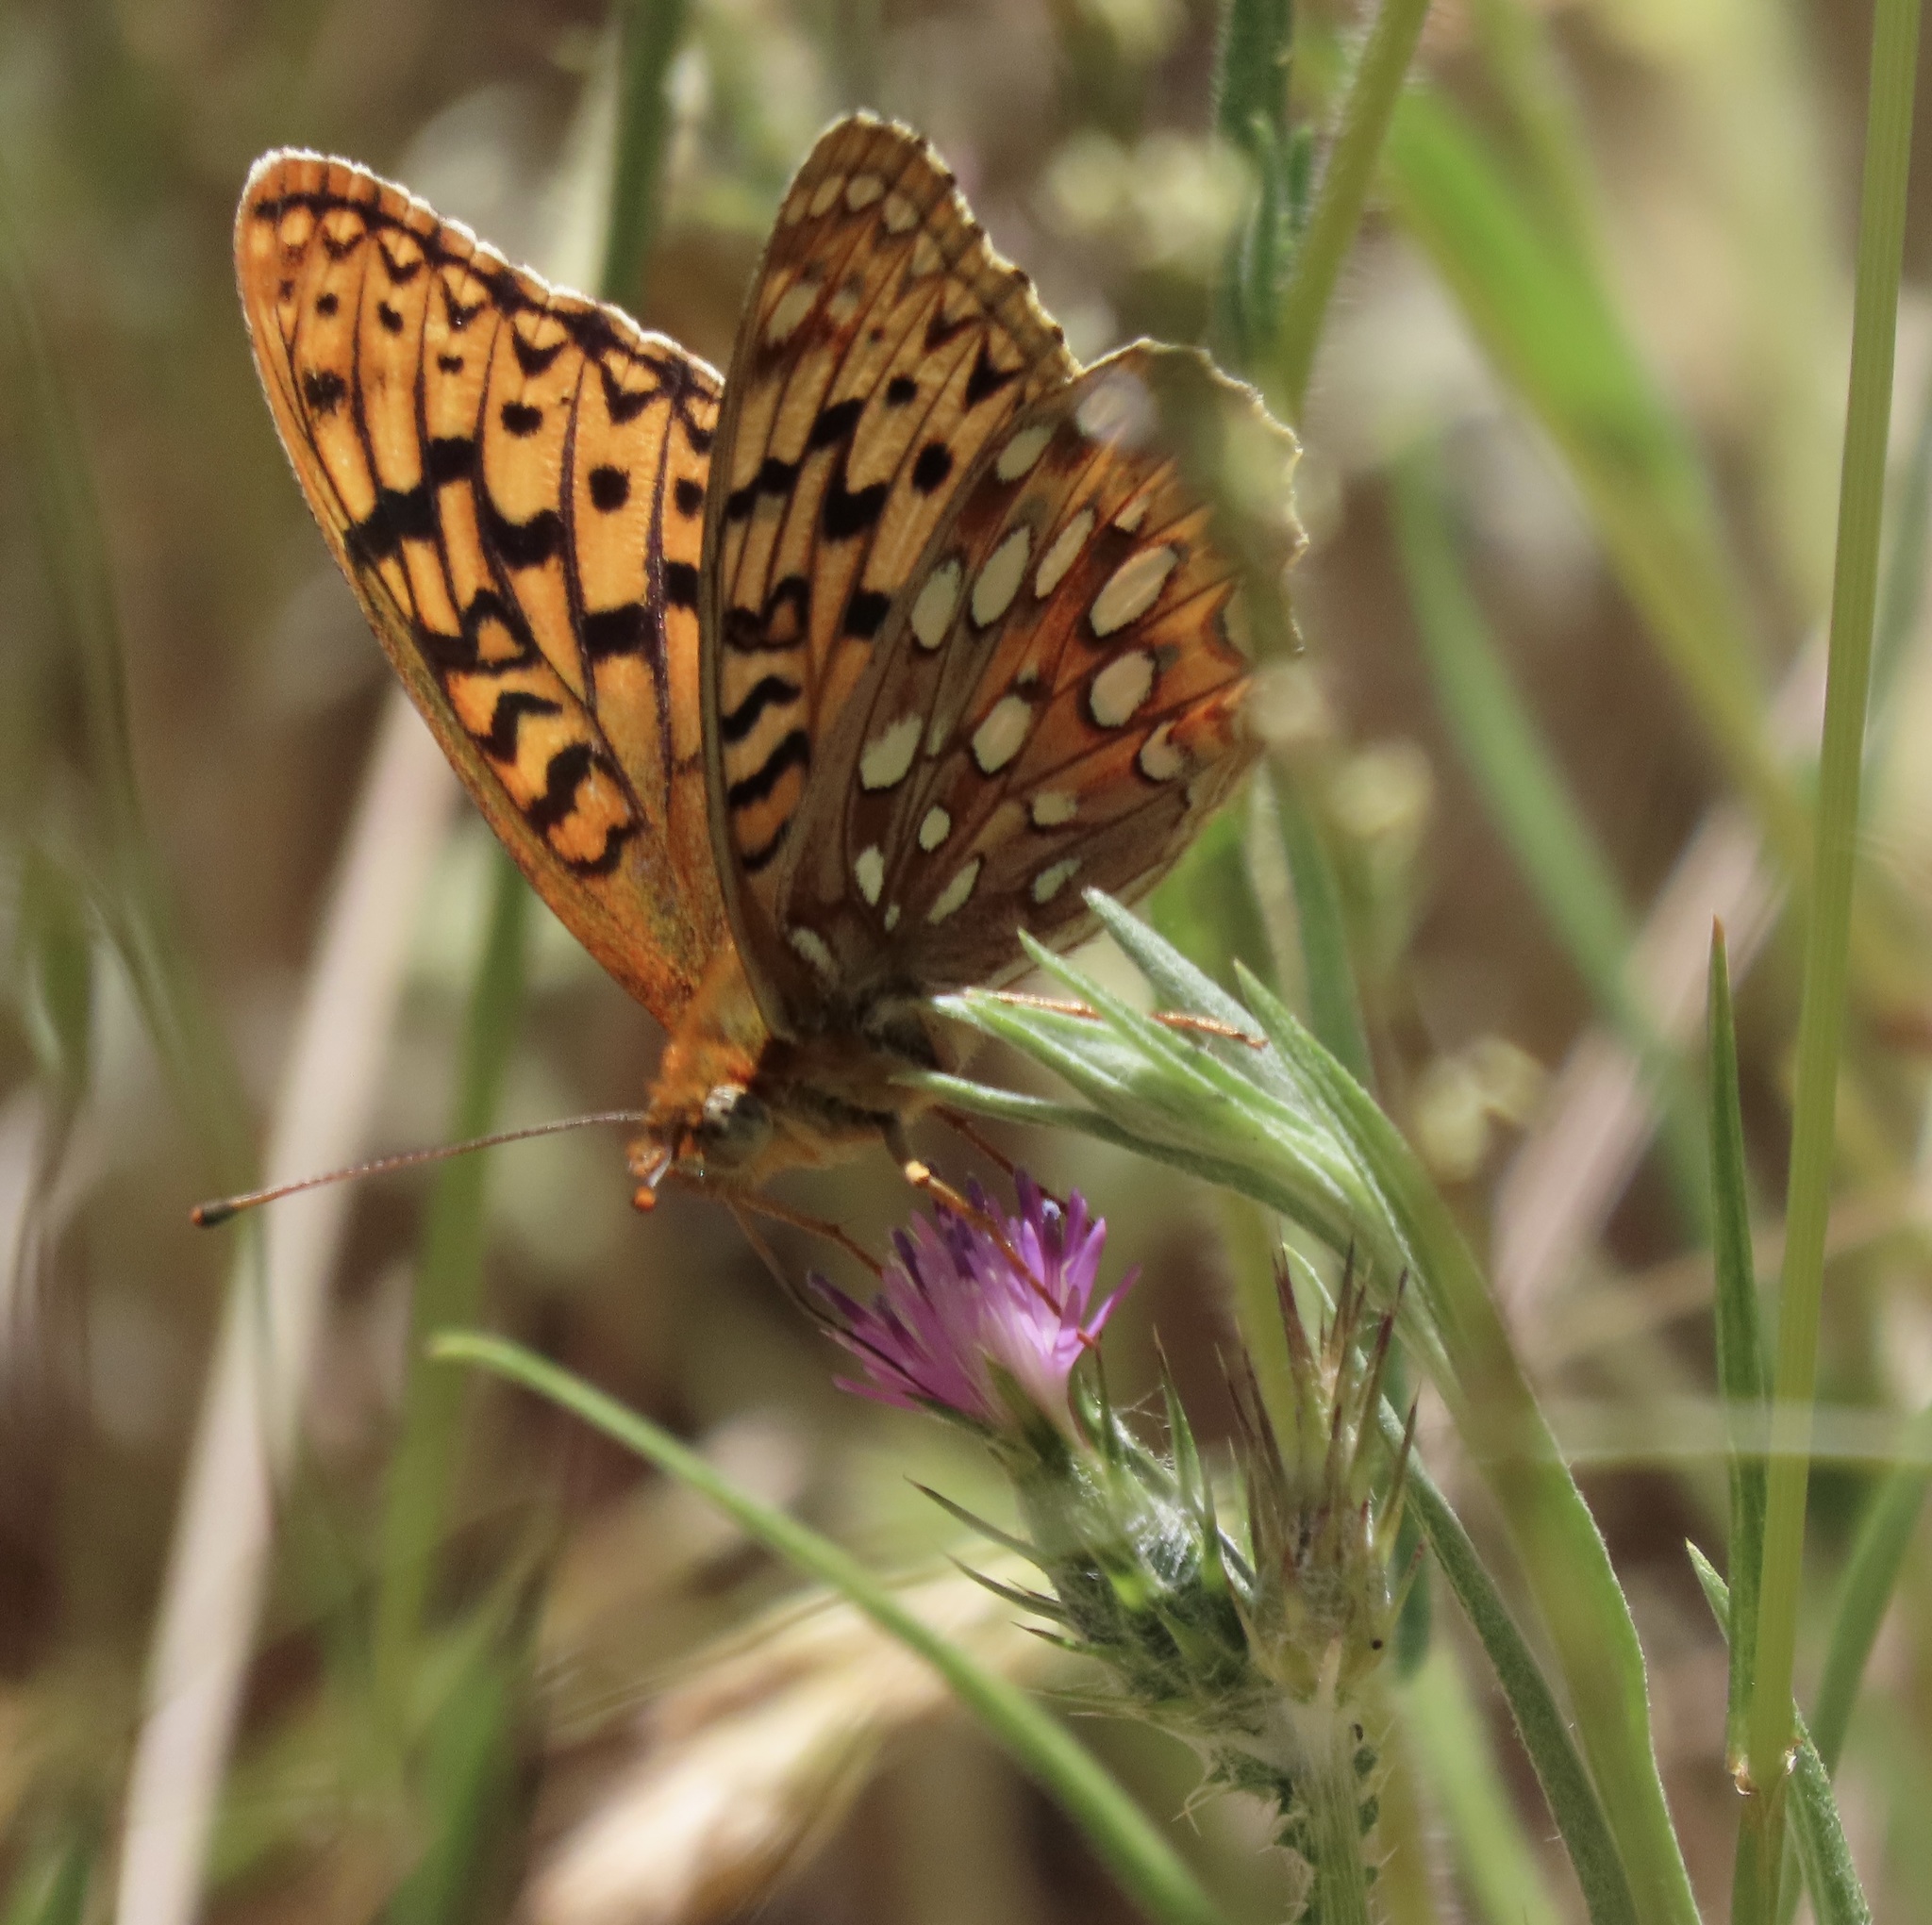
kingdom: Animalia
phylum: Arthropoda
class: Insecta
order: Lepidoptera
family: Nymphalidae
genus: Argynnis
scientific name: Argynnis coronis
